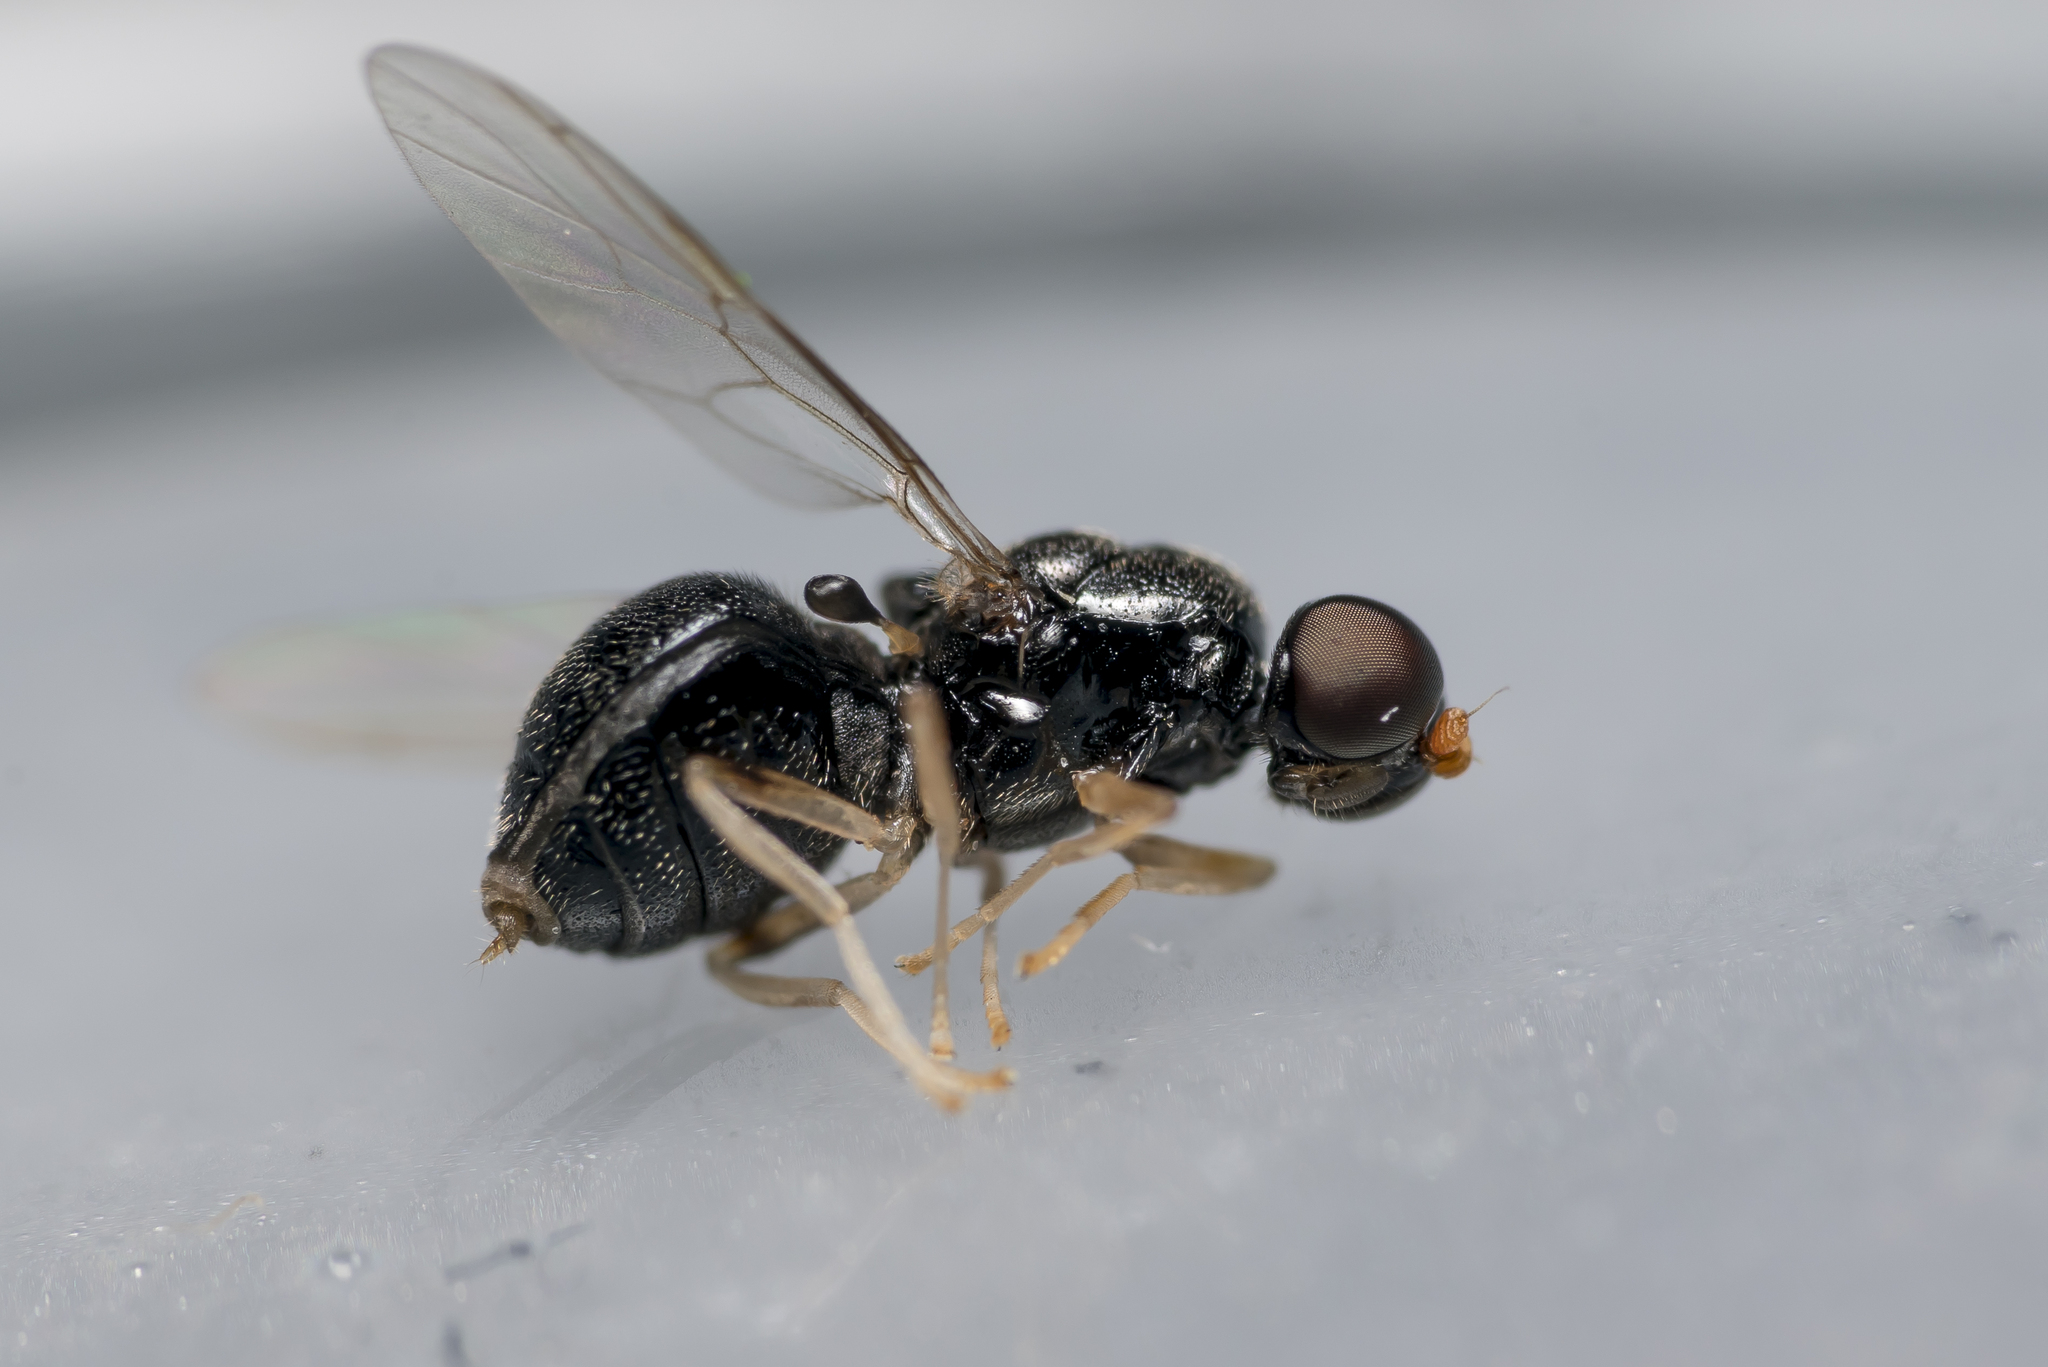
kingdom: Animalia
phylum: Arthropoda
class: Insecta
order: Diptera
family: Stratiomyidae
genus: Pachygaster
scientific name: Pachygaster leachii
